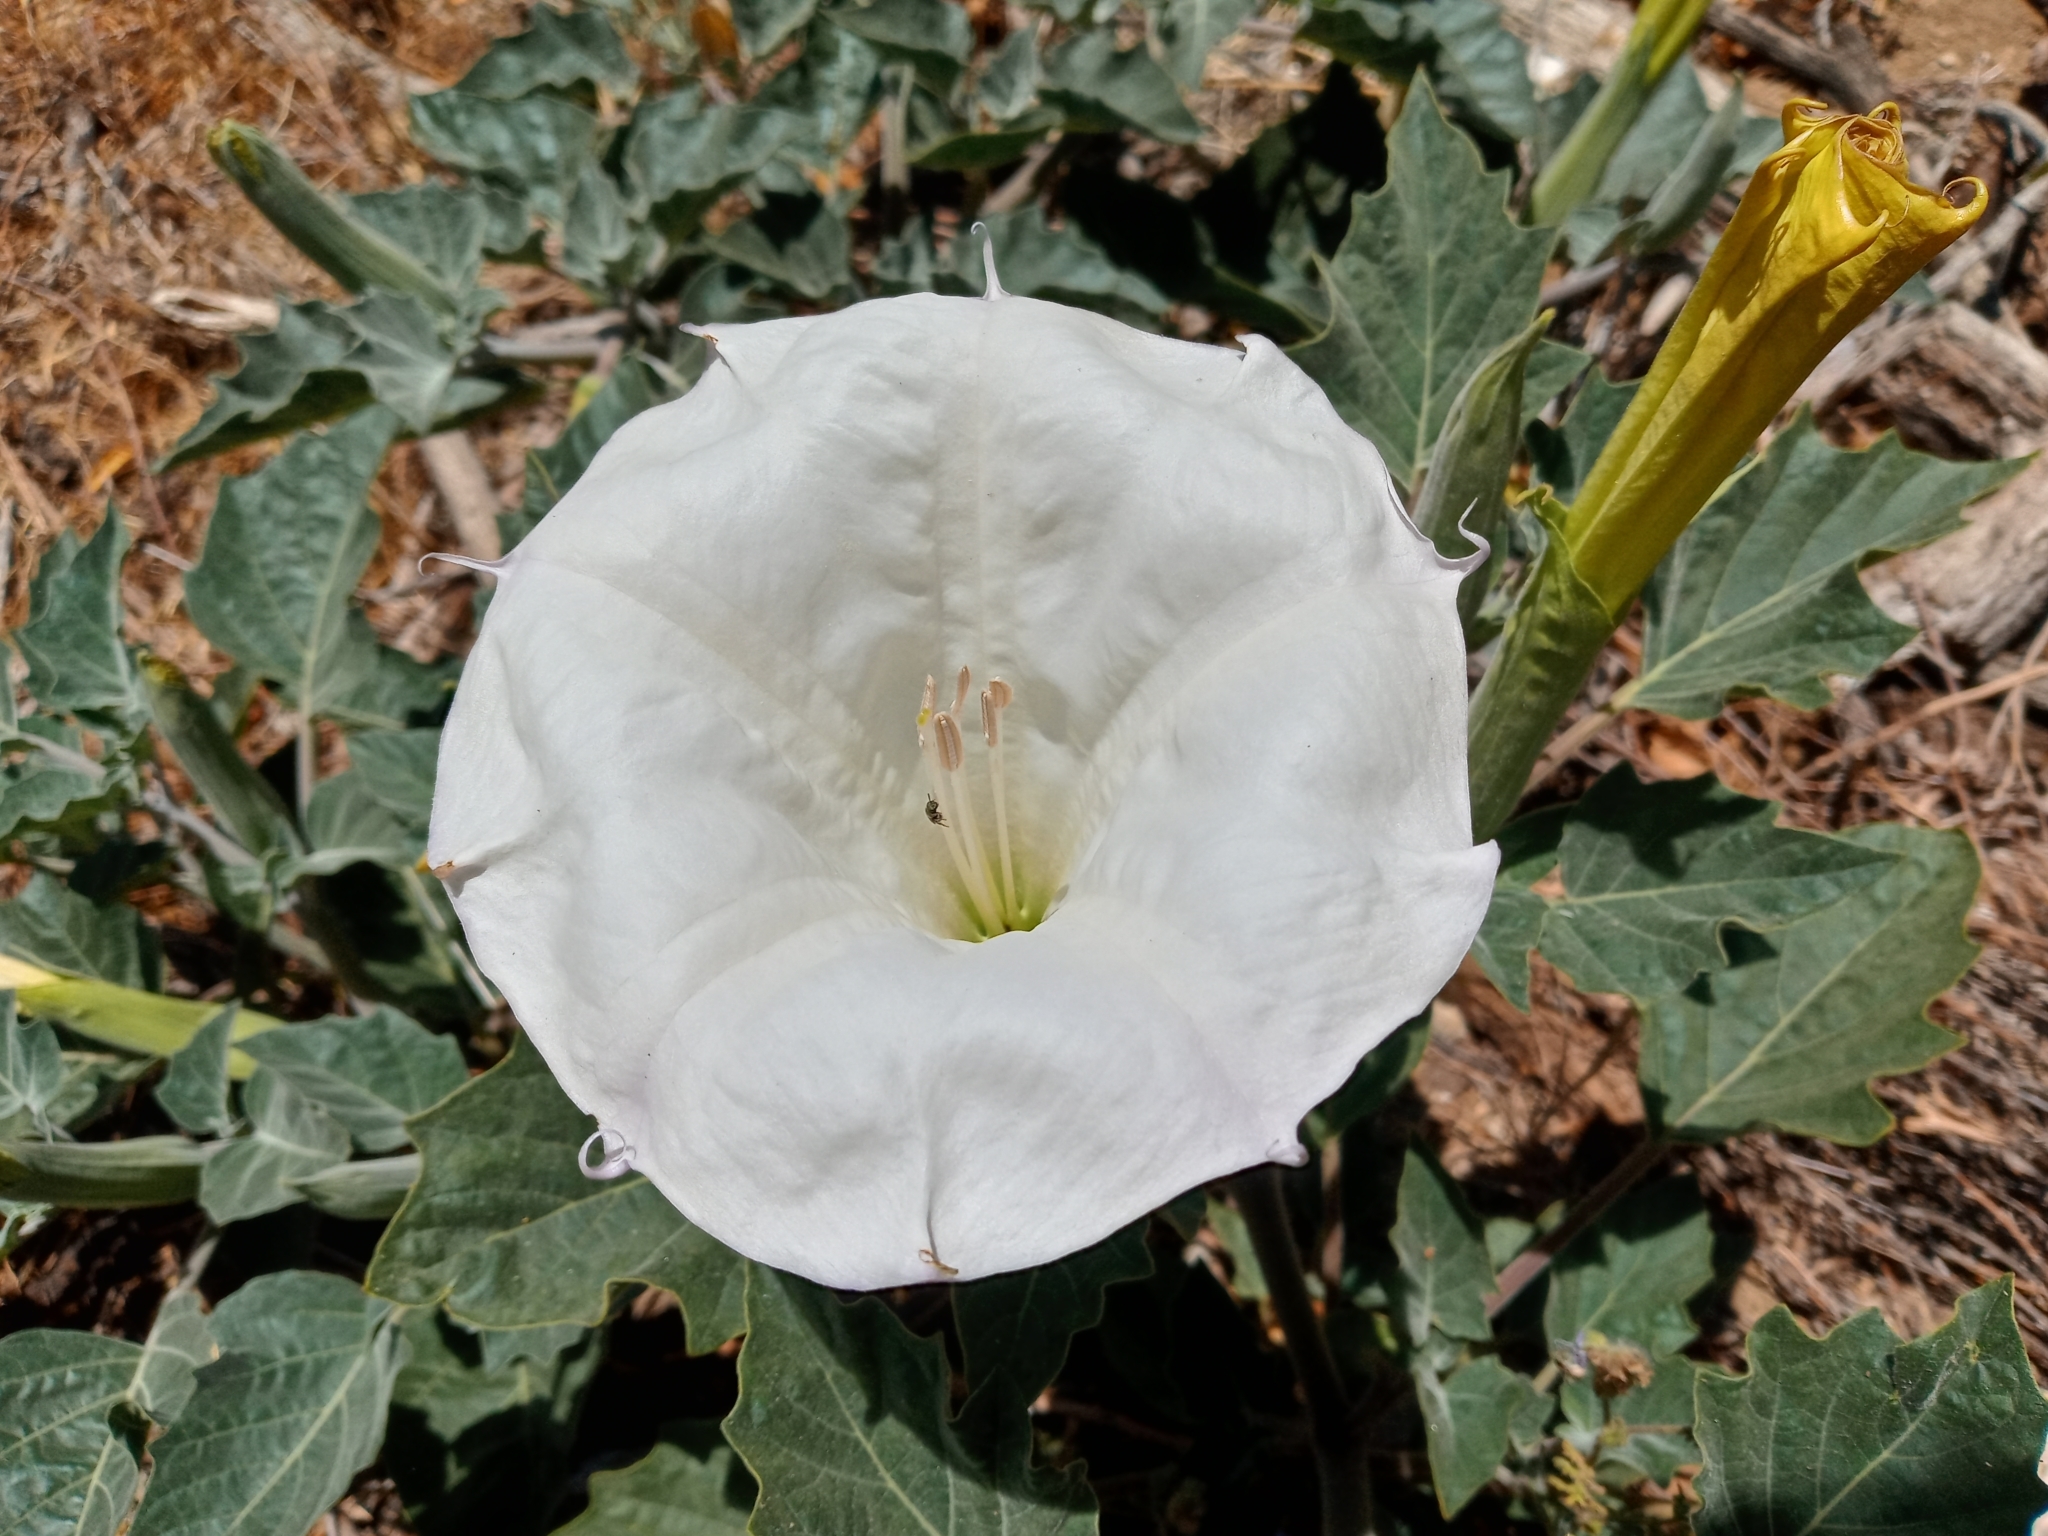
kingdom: Plantae
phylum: Tracheophyta
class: Magnoliopsida
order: Solanales
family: Solanaceae
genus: Datura
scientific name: Datura wrightii
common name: Sacred thorn-apple
